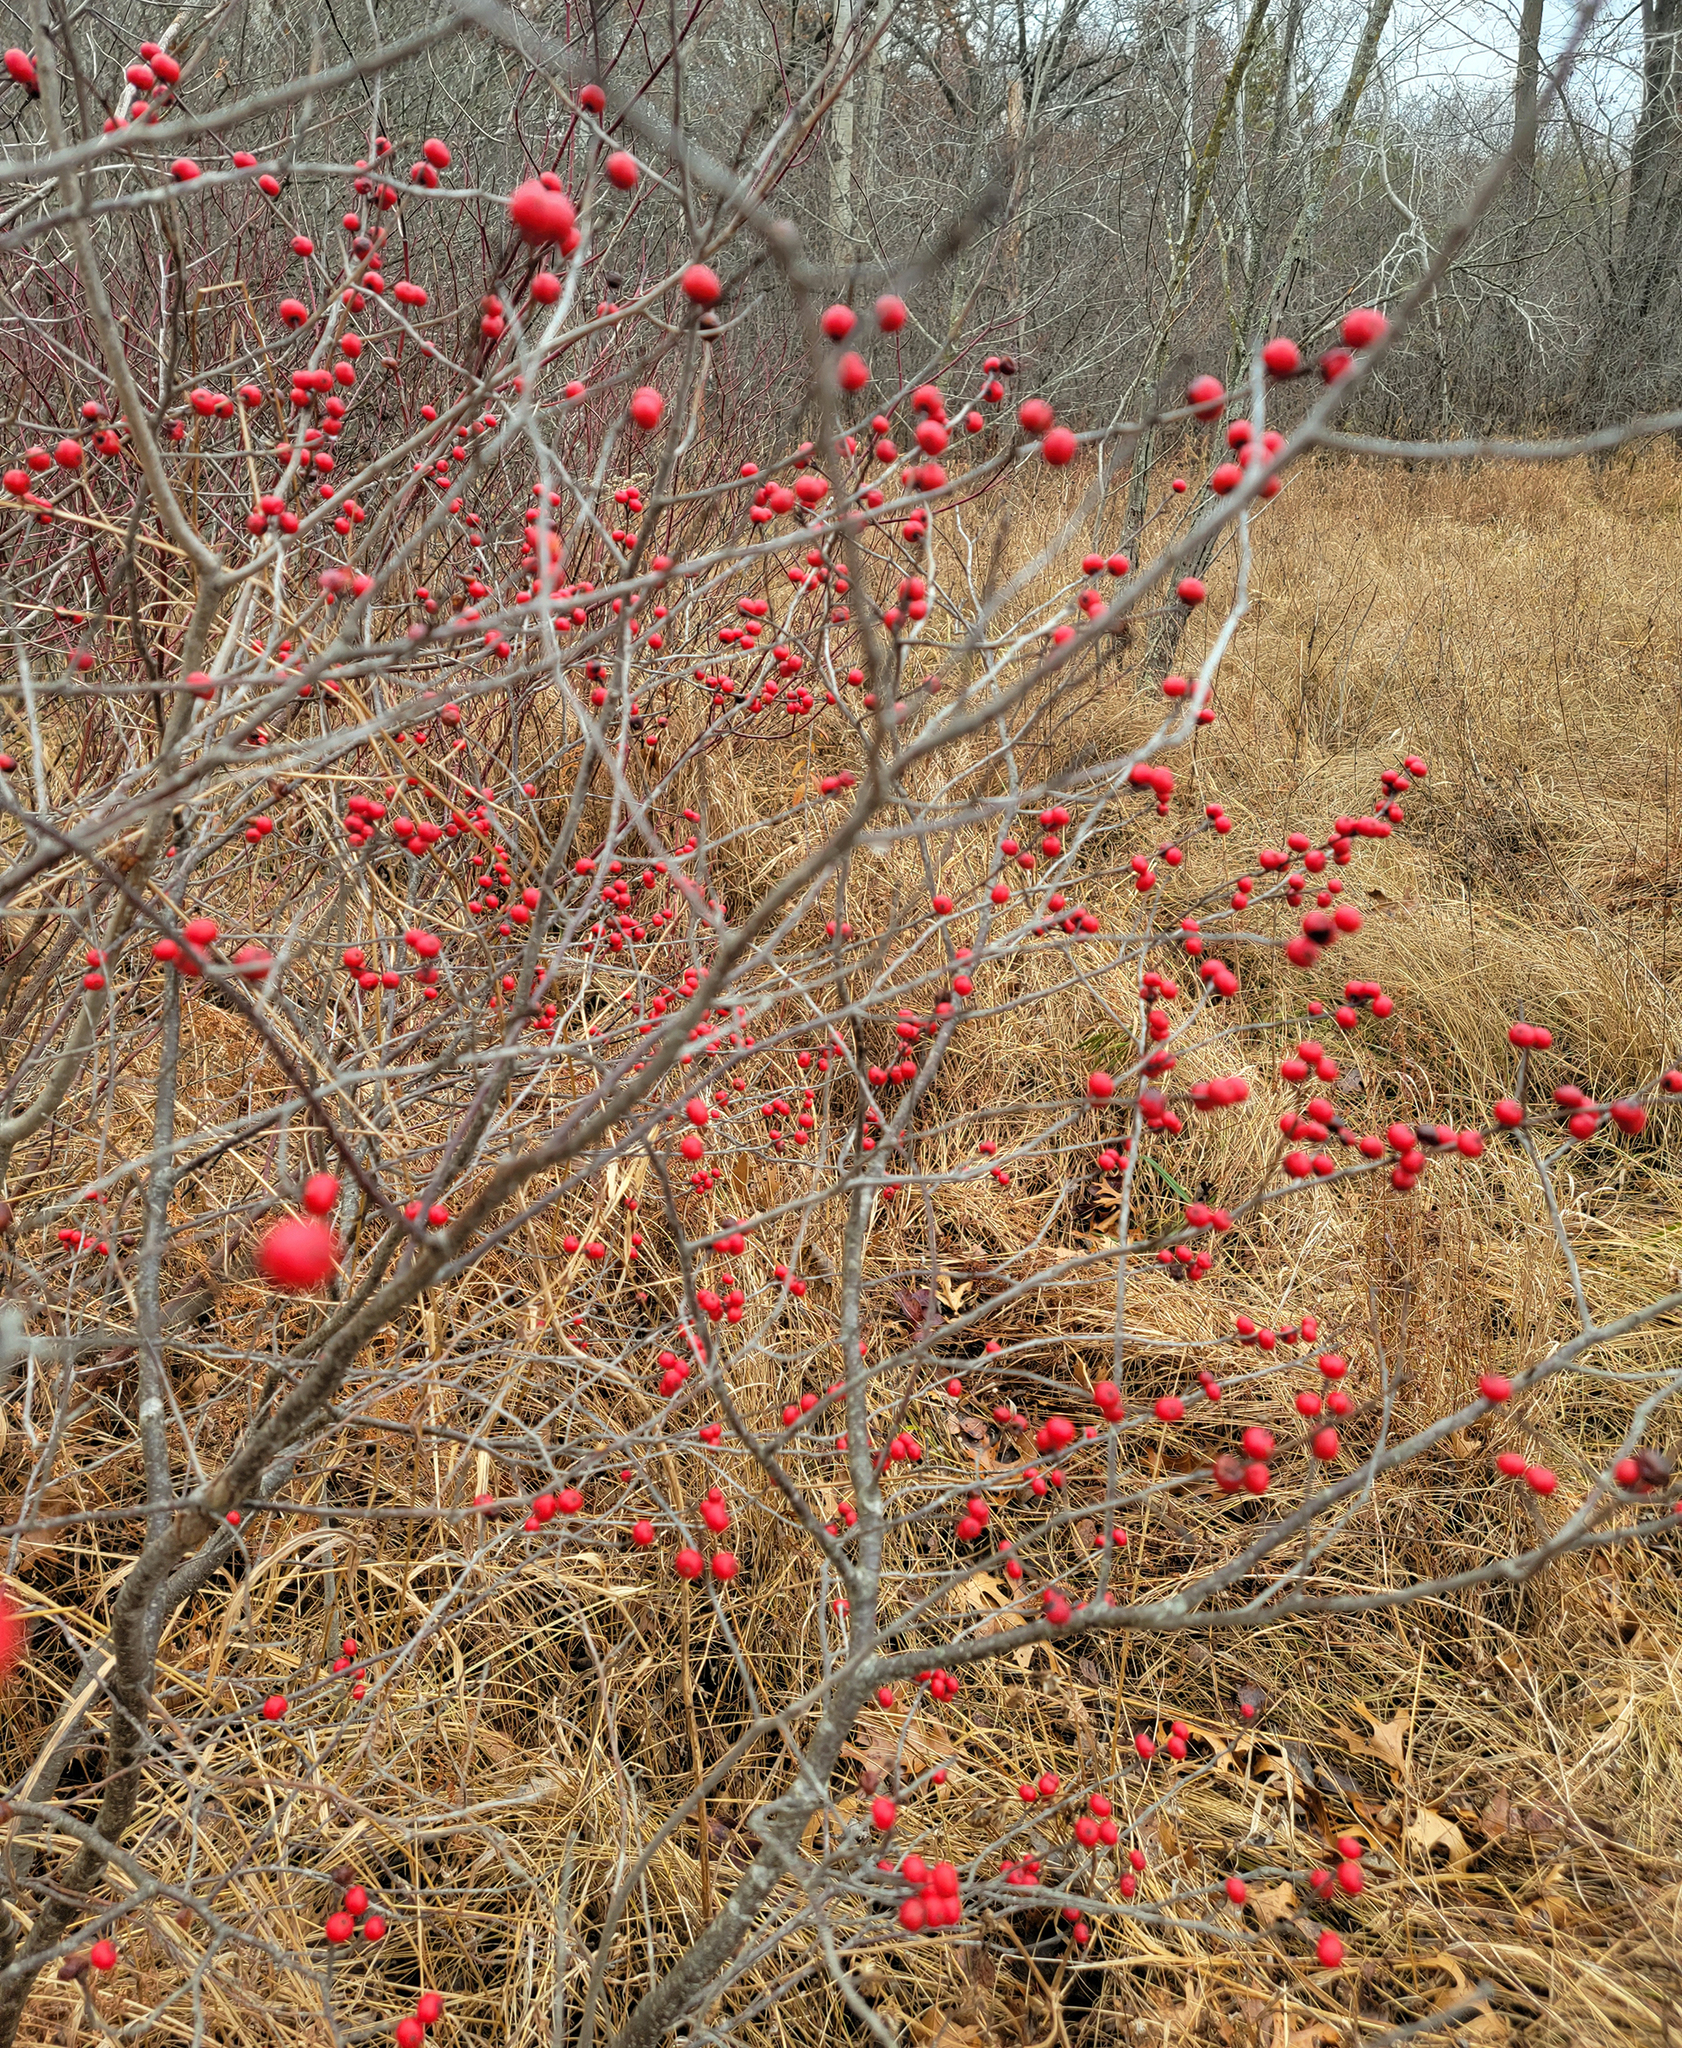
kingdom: Plantae
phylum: Tracheophyta
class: Magnoliopsida
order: Aquifoliales
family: Aquifoliaceae
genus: Ilex
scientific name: Ilex verticillata
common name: Virginia winterberry
